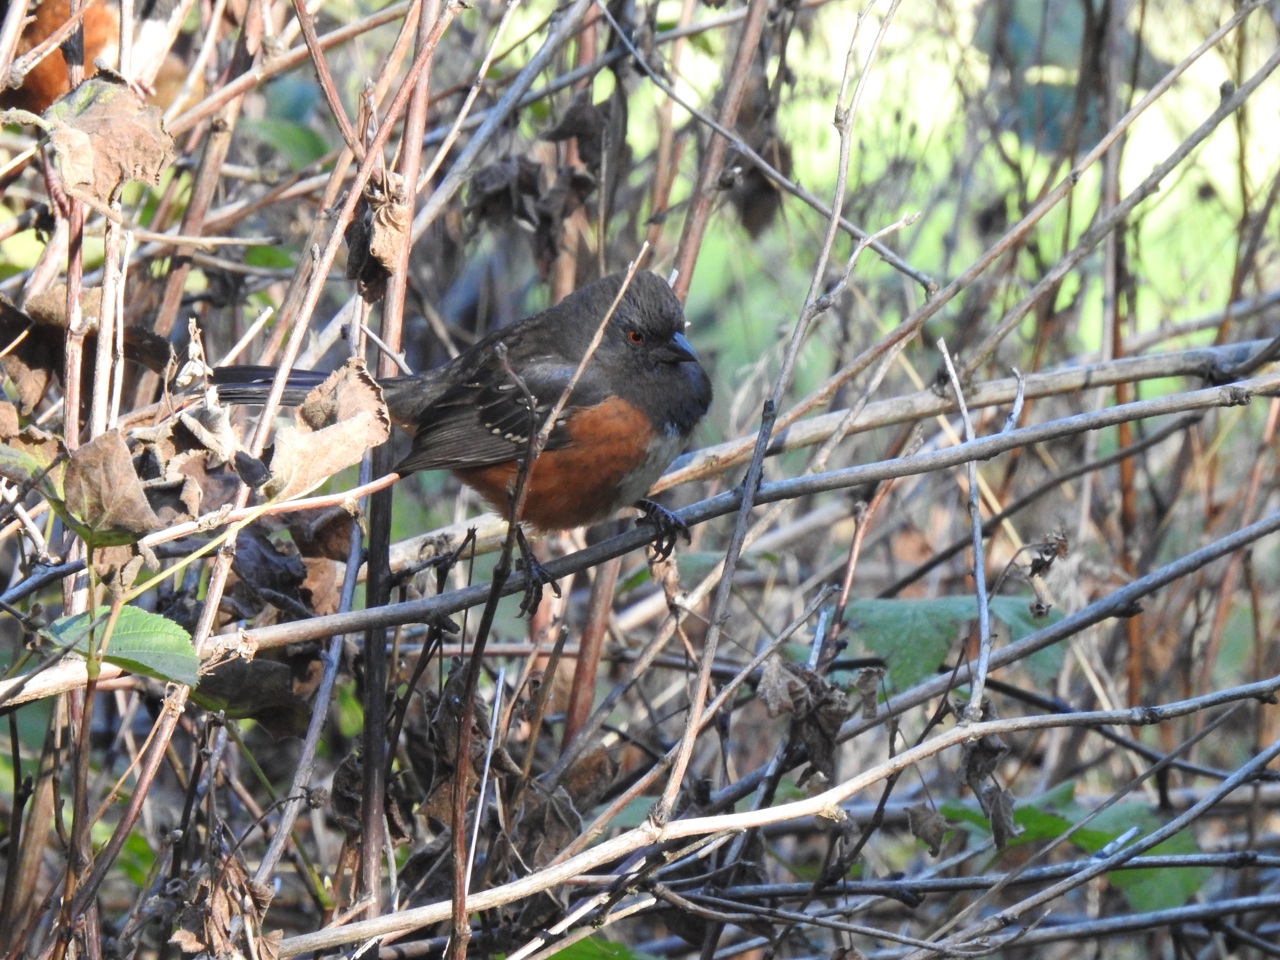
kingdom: Animalia
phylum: Chordata
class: Aves
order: Passeriformes
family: Passerellidae
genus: Pipilo
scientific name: Pipilo maculatus
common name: Spotted towhee
